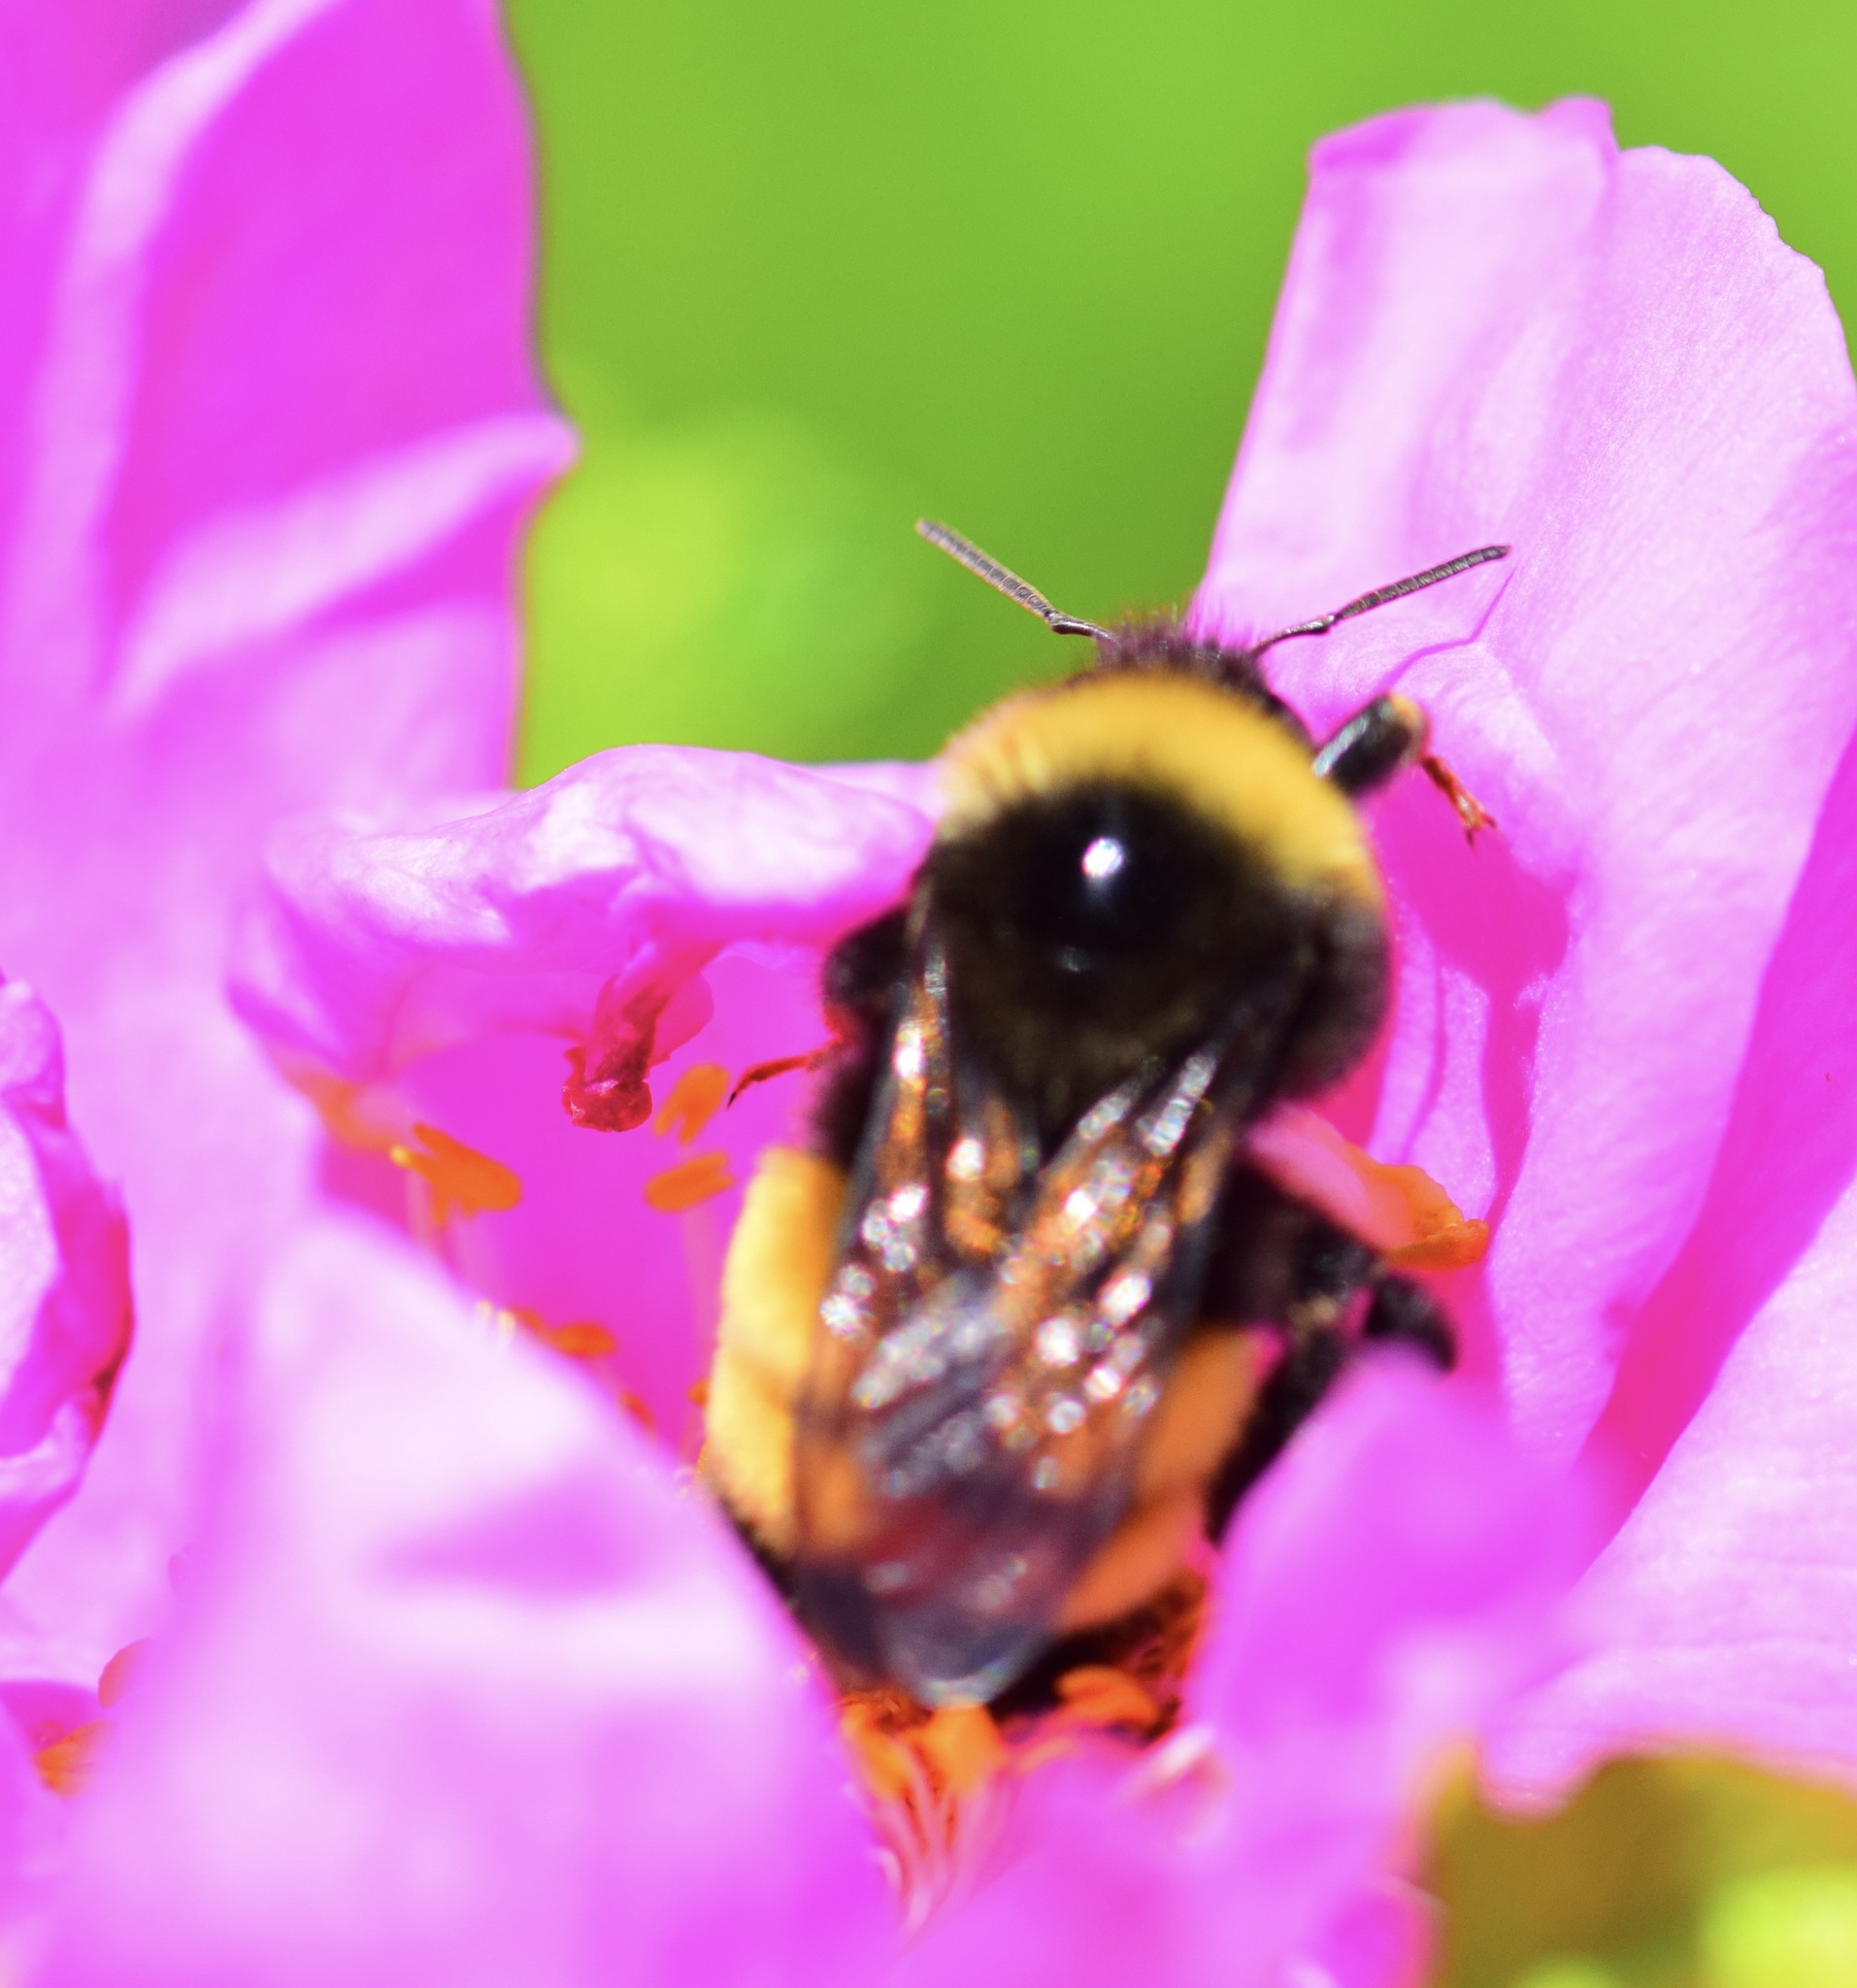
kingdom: Animalia
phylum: Arthropoda
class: Insecta
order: Hymenoptera
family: Apidae
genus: Bombus
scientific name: Bombus terricola
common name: Yellow-banded bumble bee
